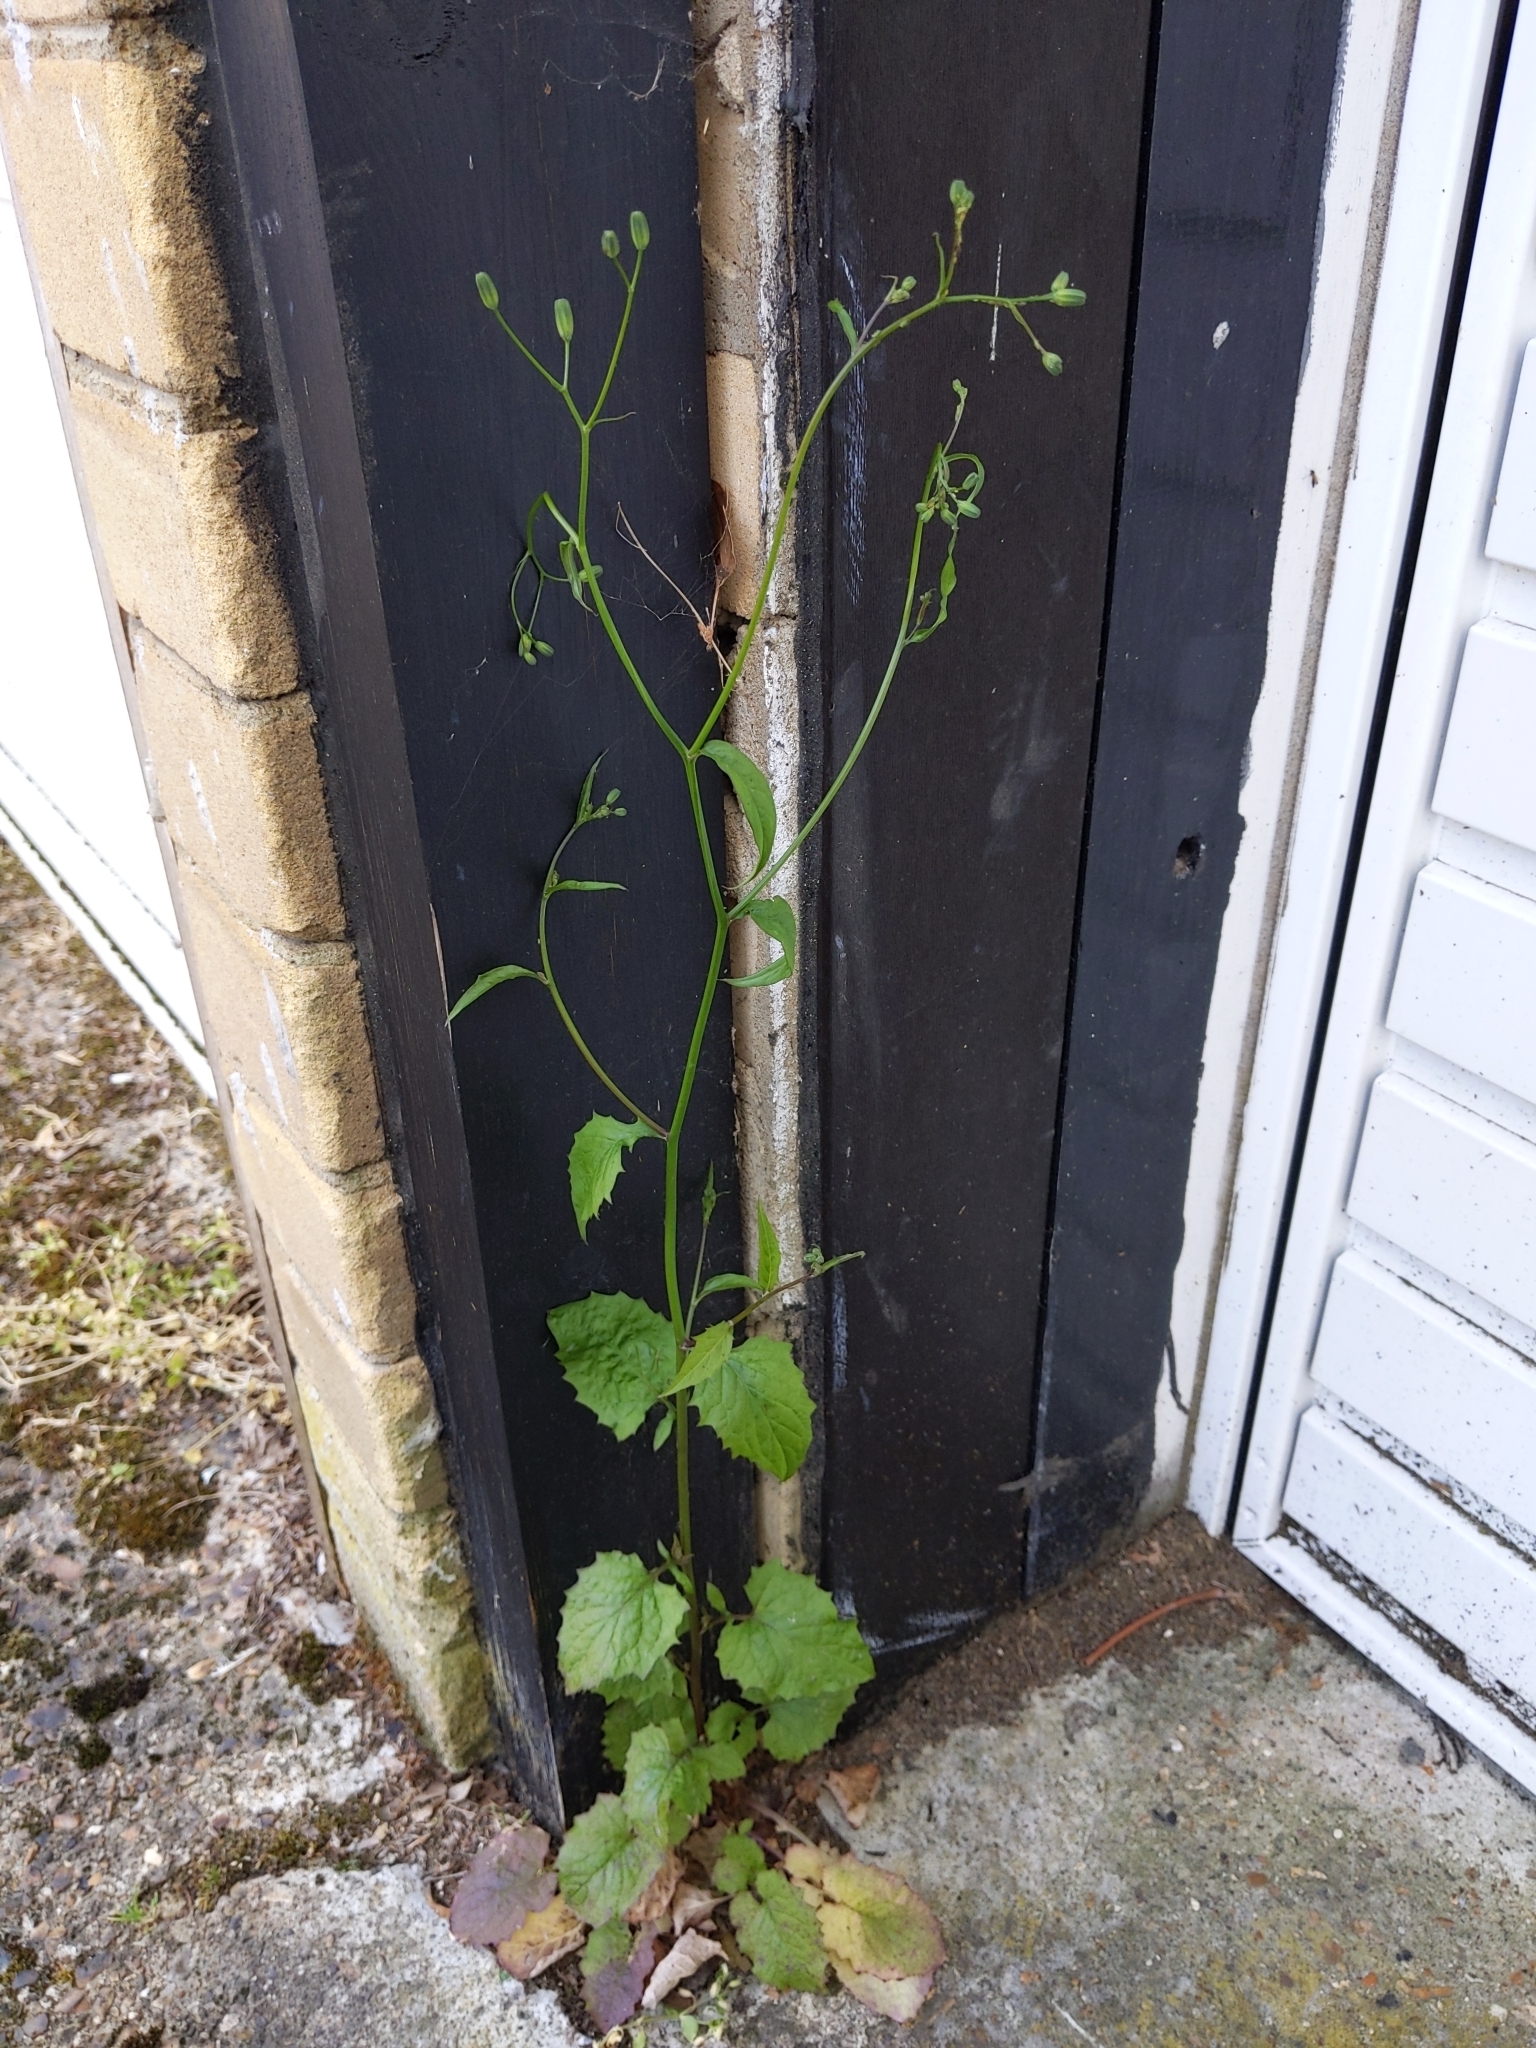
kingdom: Plantae
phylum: Tracheophyta
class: Magnoliopsida
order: Asterales
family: Asteraceae
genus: Lapsana
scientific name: Lapsana communis
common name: Nipplewort
